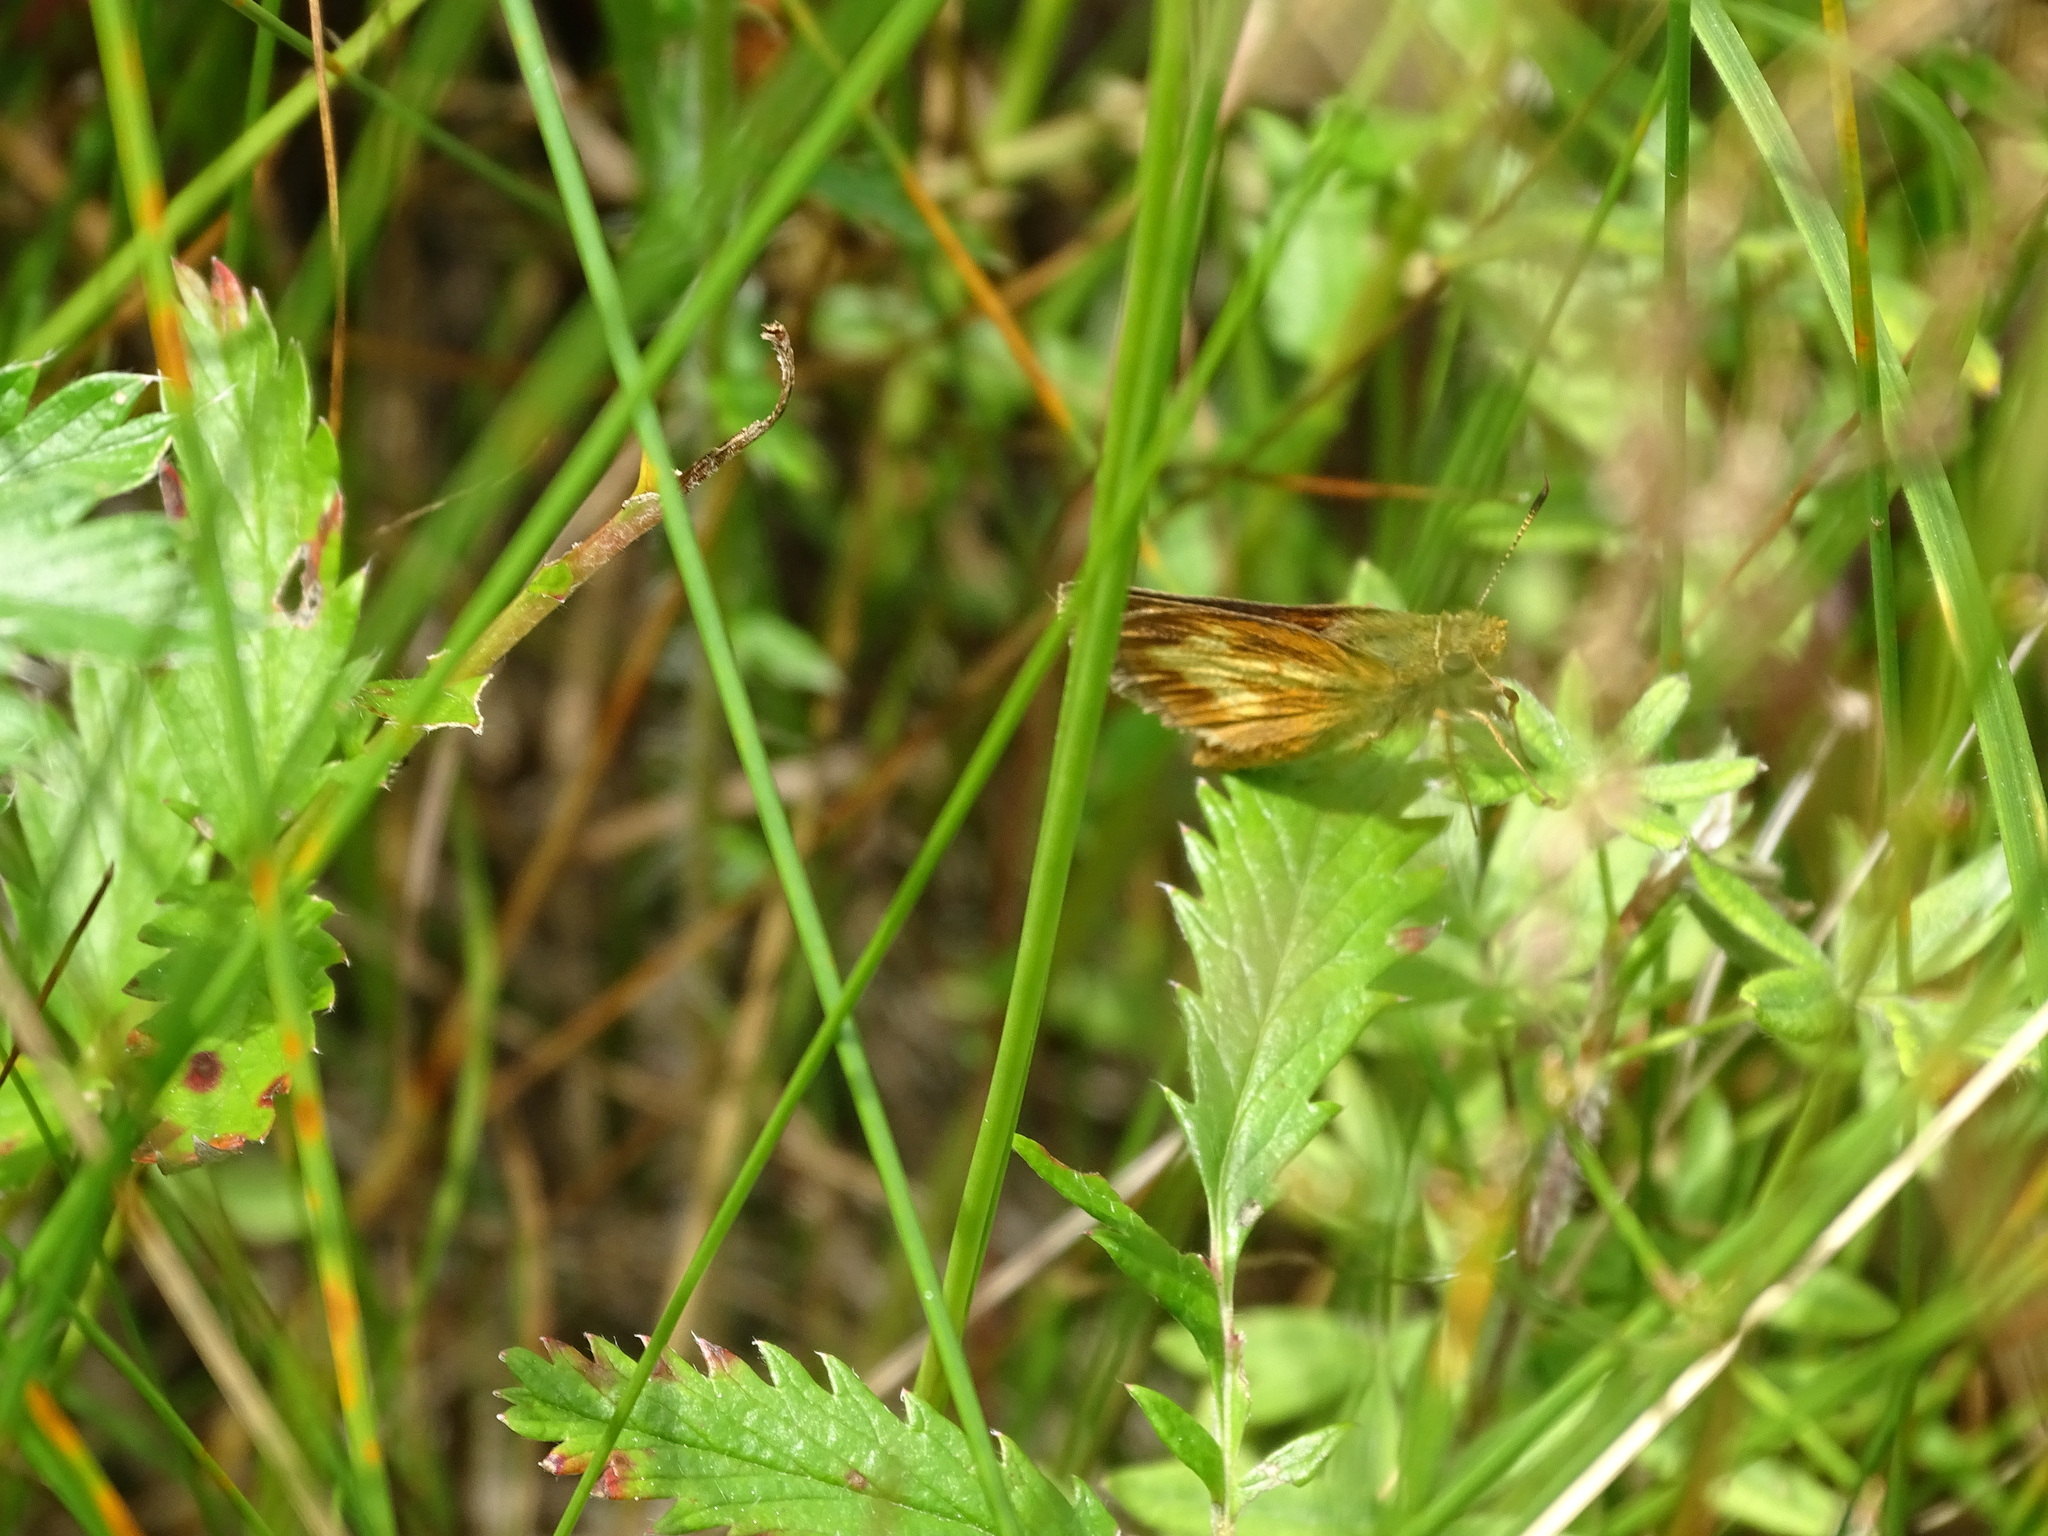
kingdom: Animalia
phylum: Arthropoda
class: Insecta
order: Lepidoptera
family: Hesperiidae
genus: Poanes
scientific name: Poanes massasoit
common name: Mulberrywing
